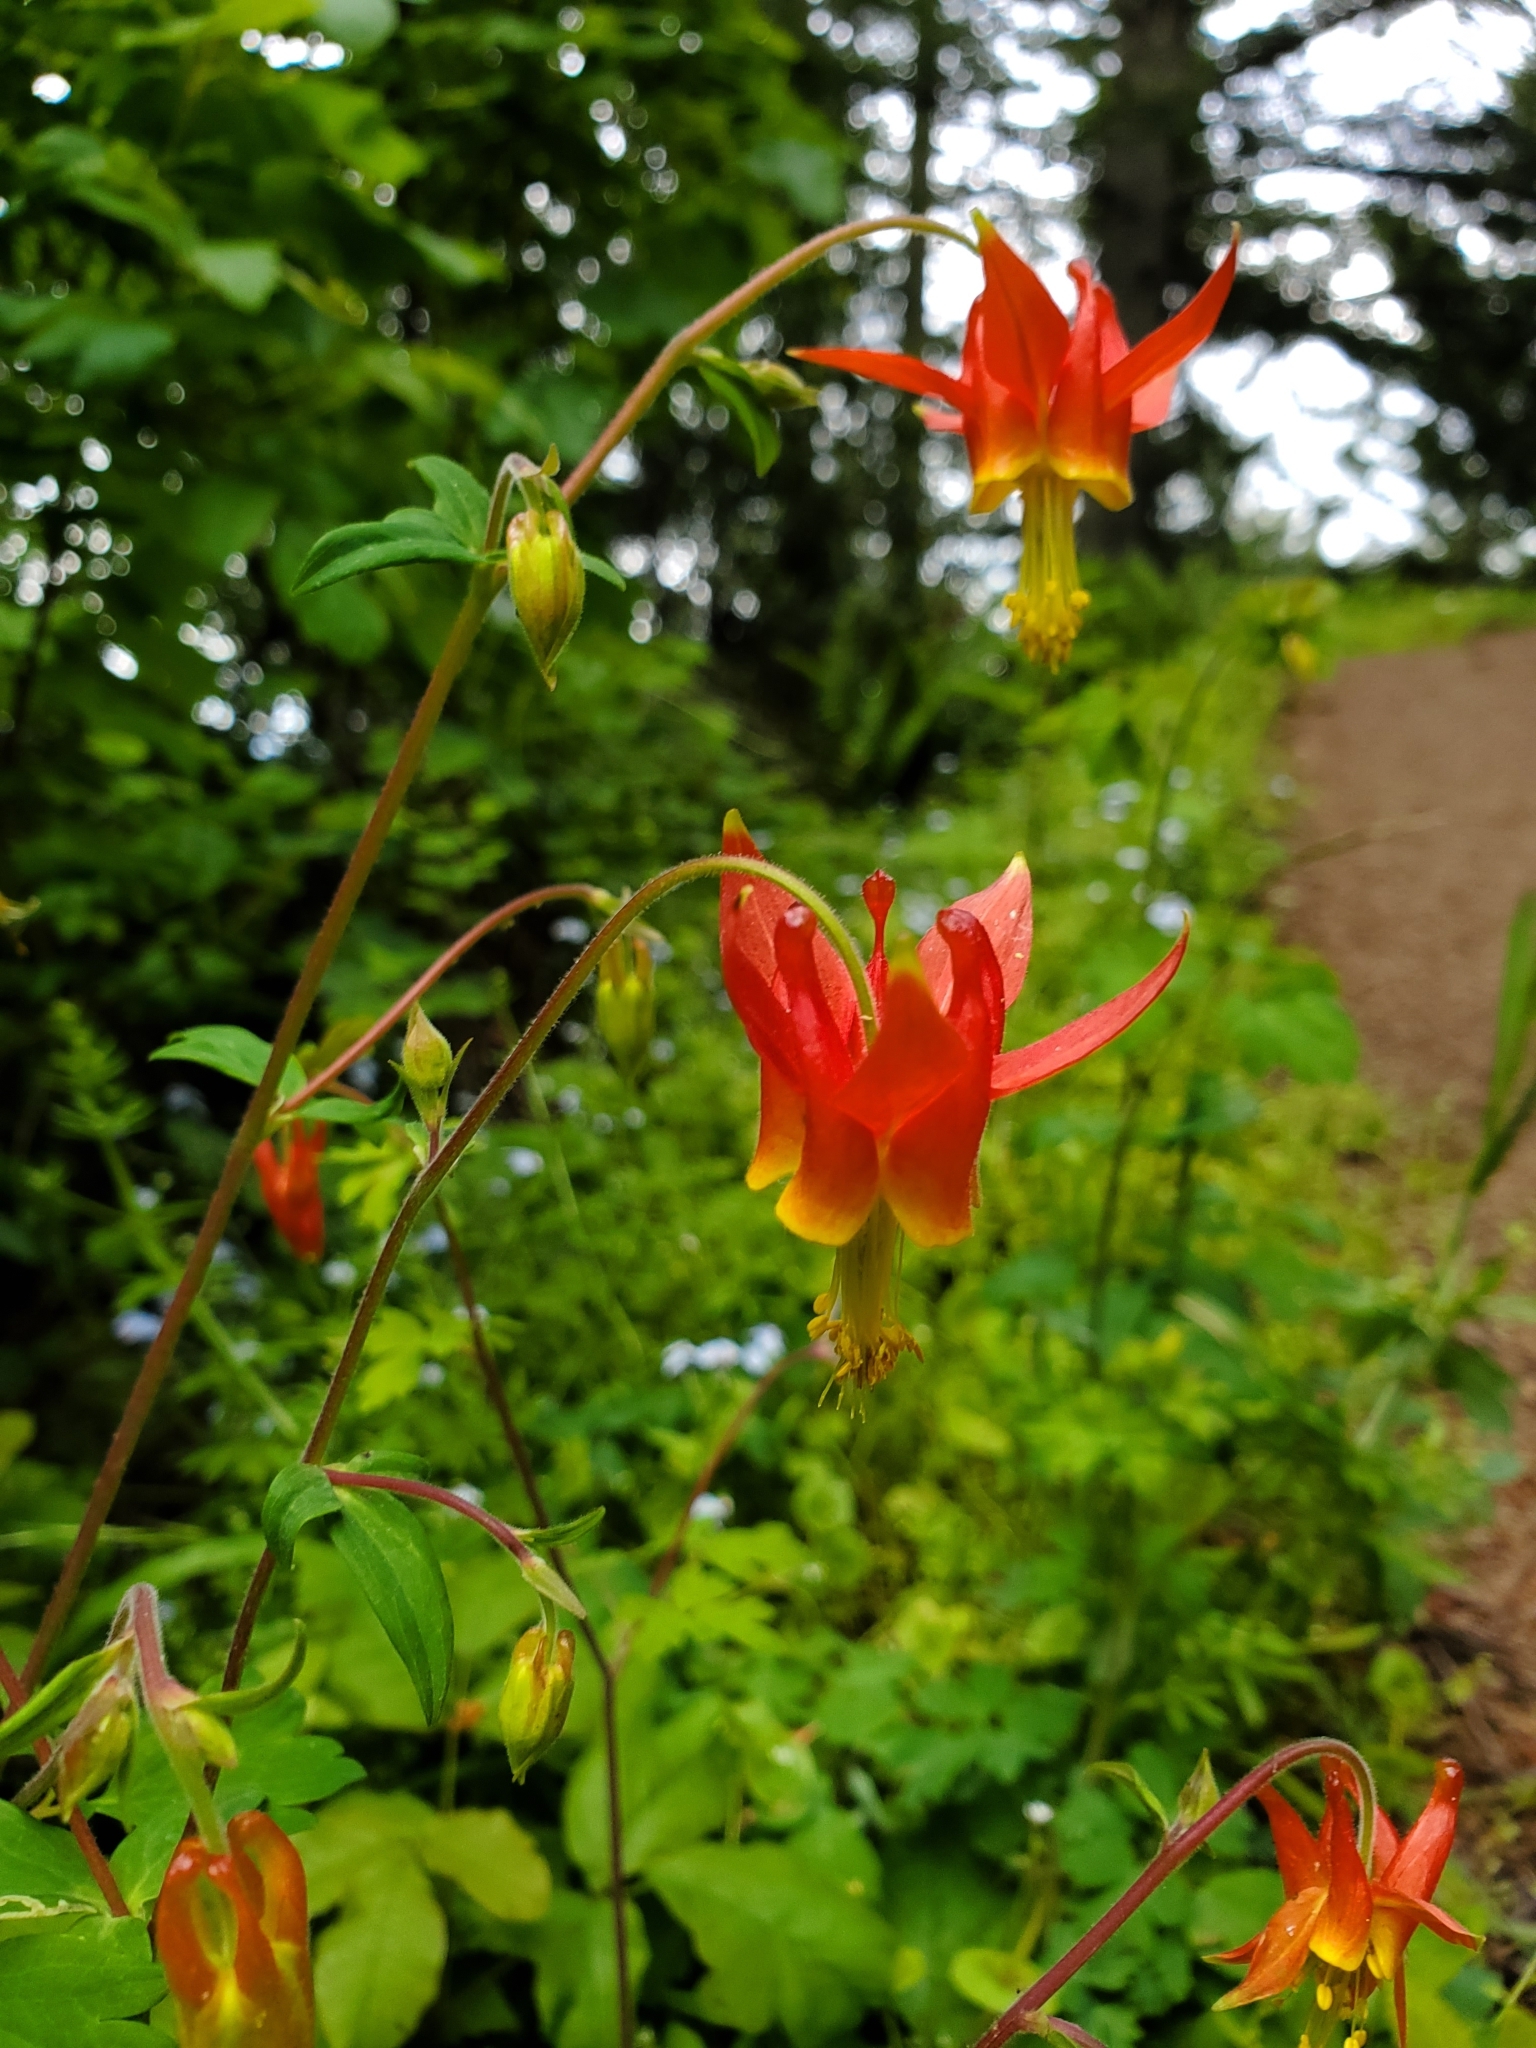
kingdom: Plantae
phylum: Tracheophyta
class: Magnoliopsida
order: Ranunculales
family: Ranunculaceae
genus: Aquilegia
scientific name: Aquilegia formosa
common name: Sitka columbine
